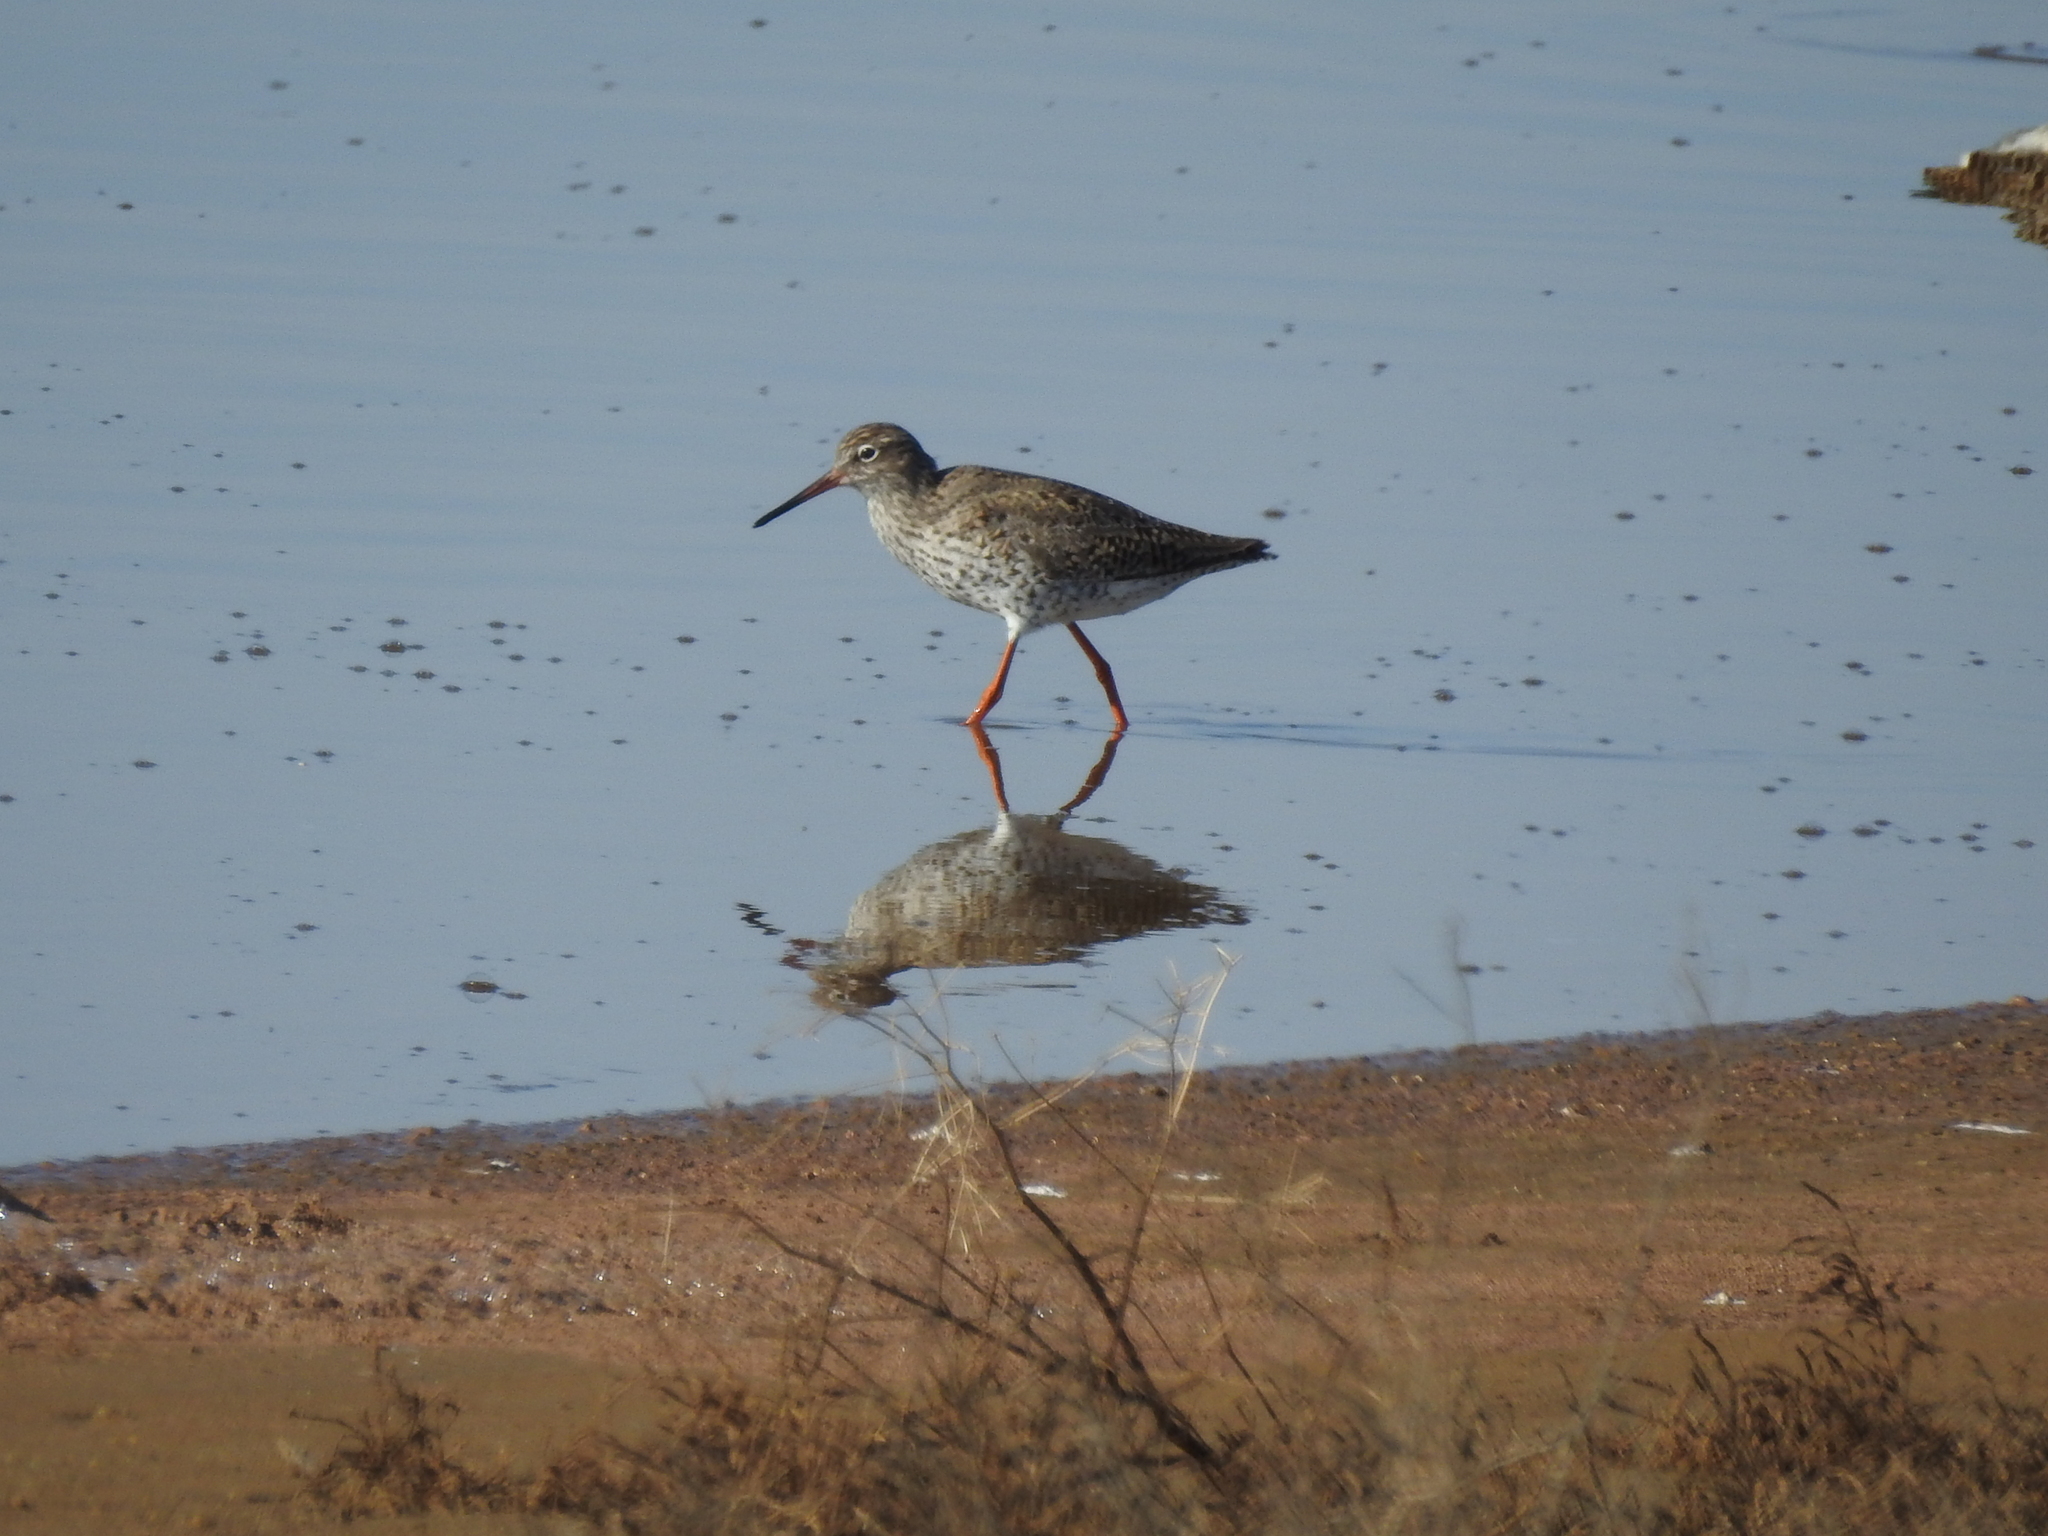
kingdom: Animalia
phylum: Chordata
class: Aves
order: Charadriiformes
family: Scolopacidae
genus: Tringa
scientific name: Tringa totanus
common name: Common redshank
